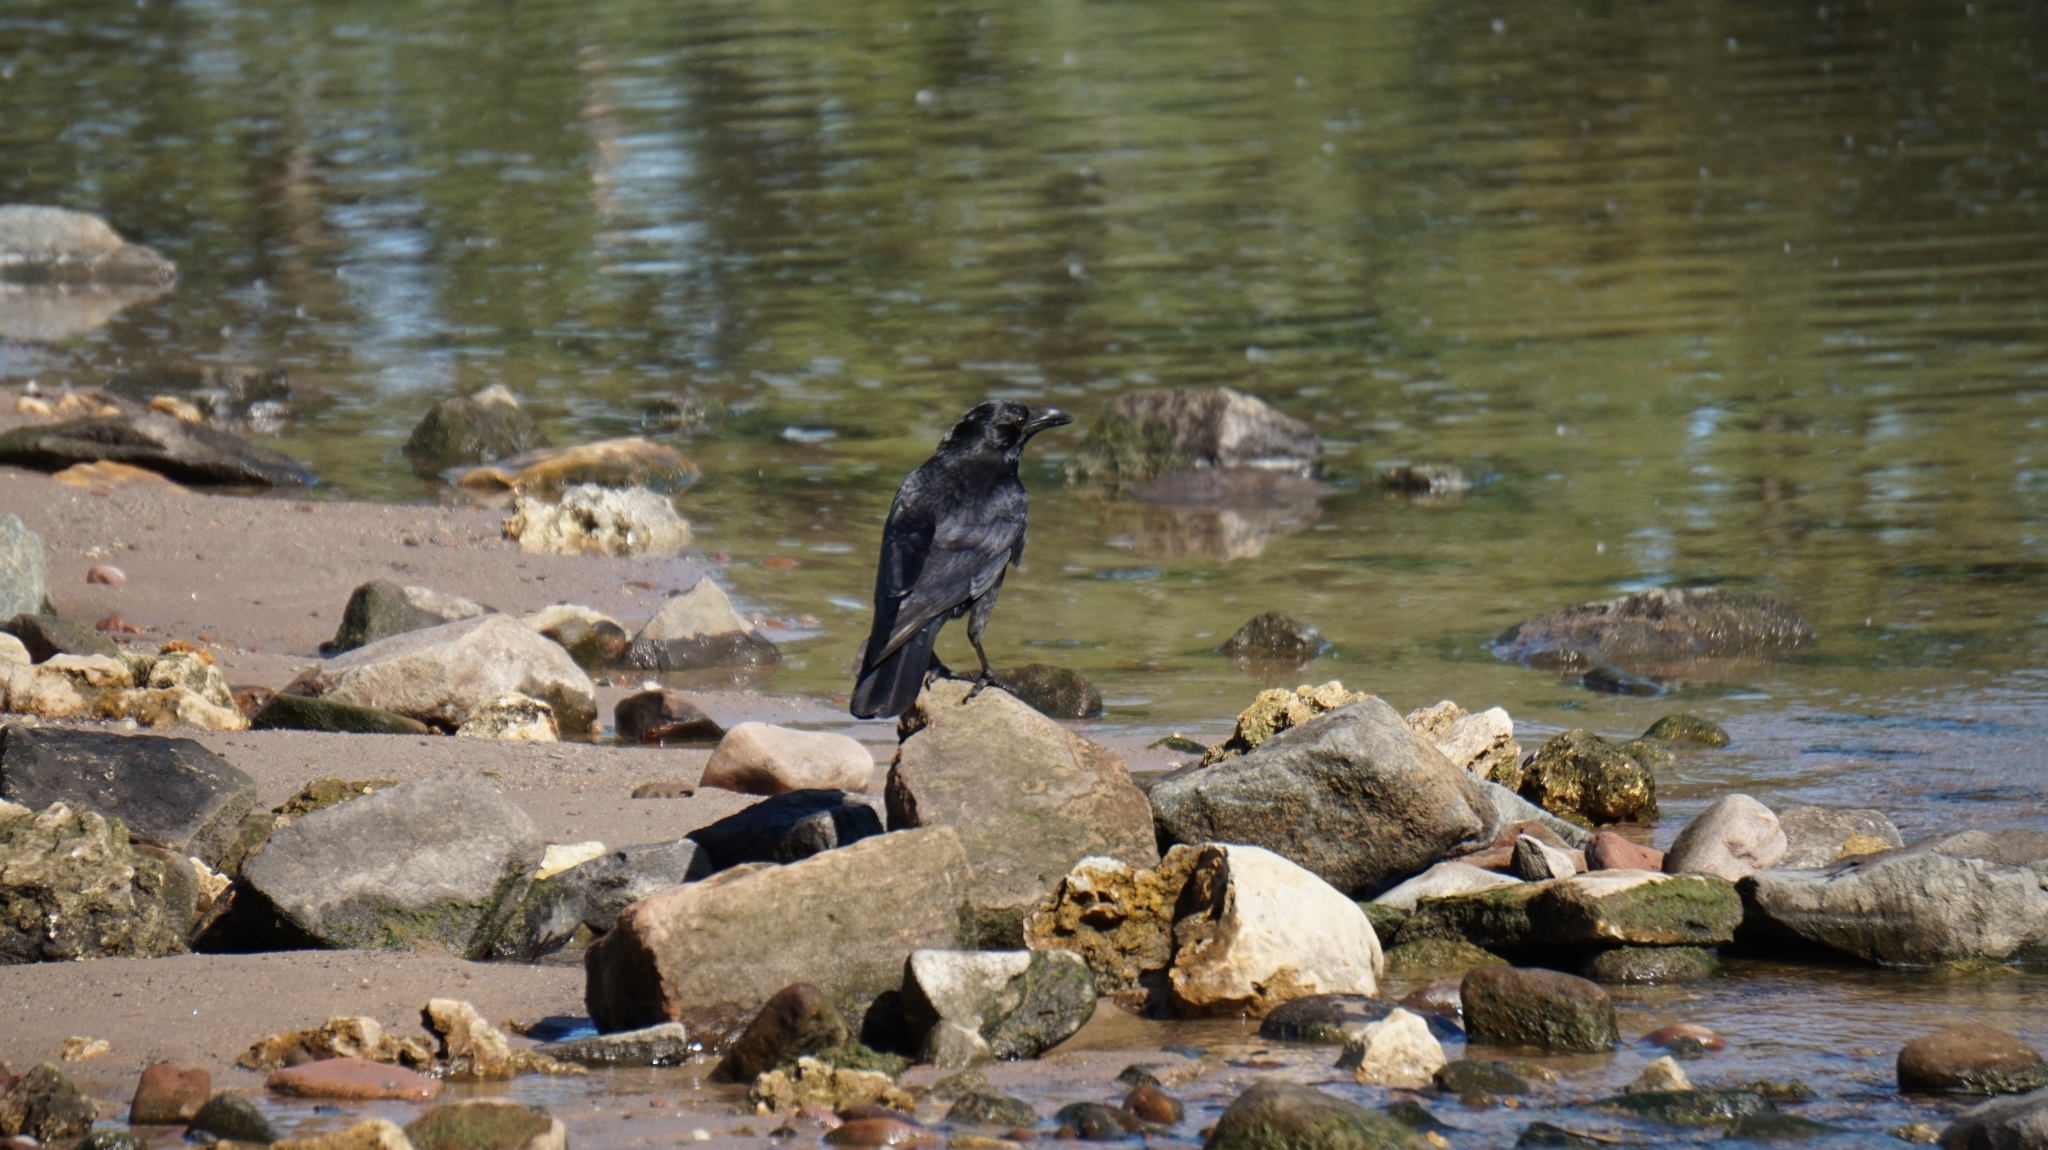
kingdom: Animalia
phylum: Chordata
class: Aves
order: Passeriformes
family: Corvidae
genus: Corvus
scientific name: Corvus corone
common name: Carrion crow
